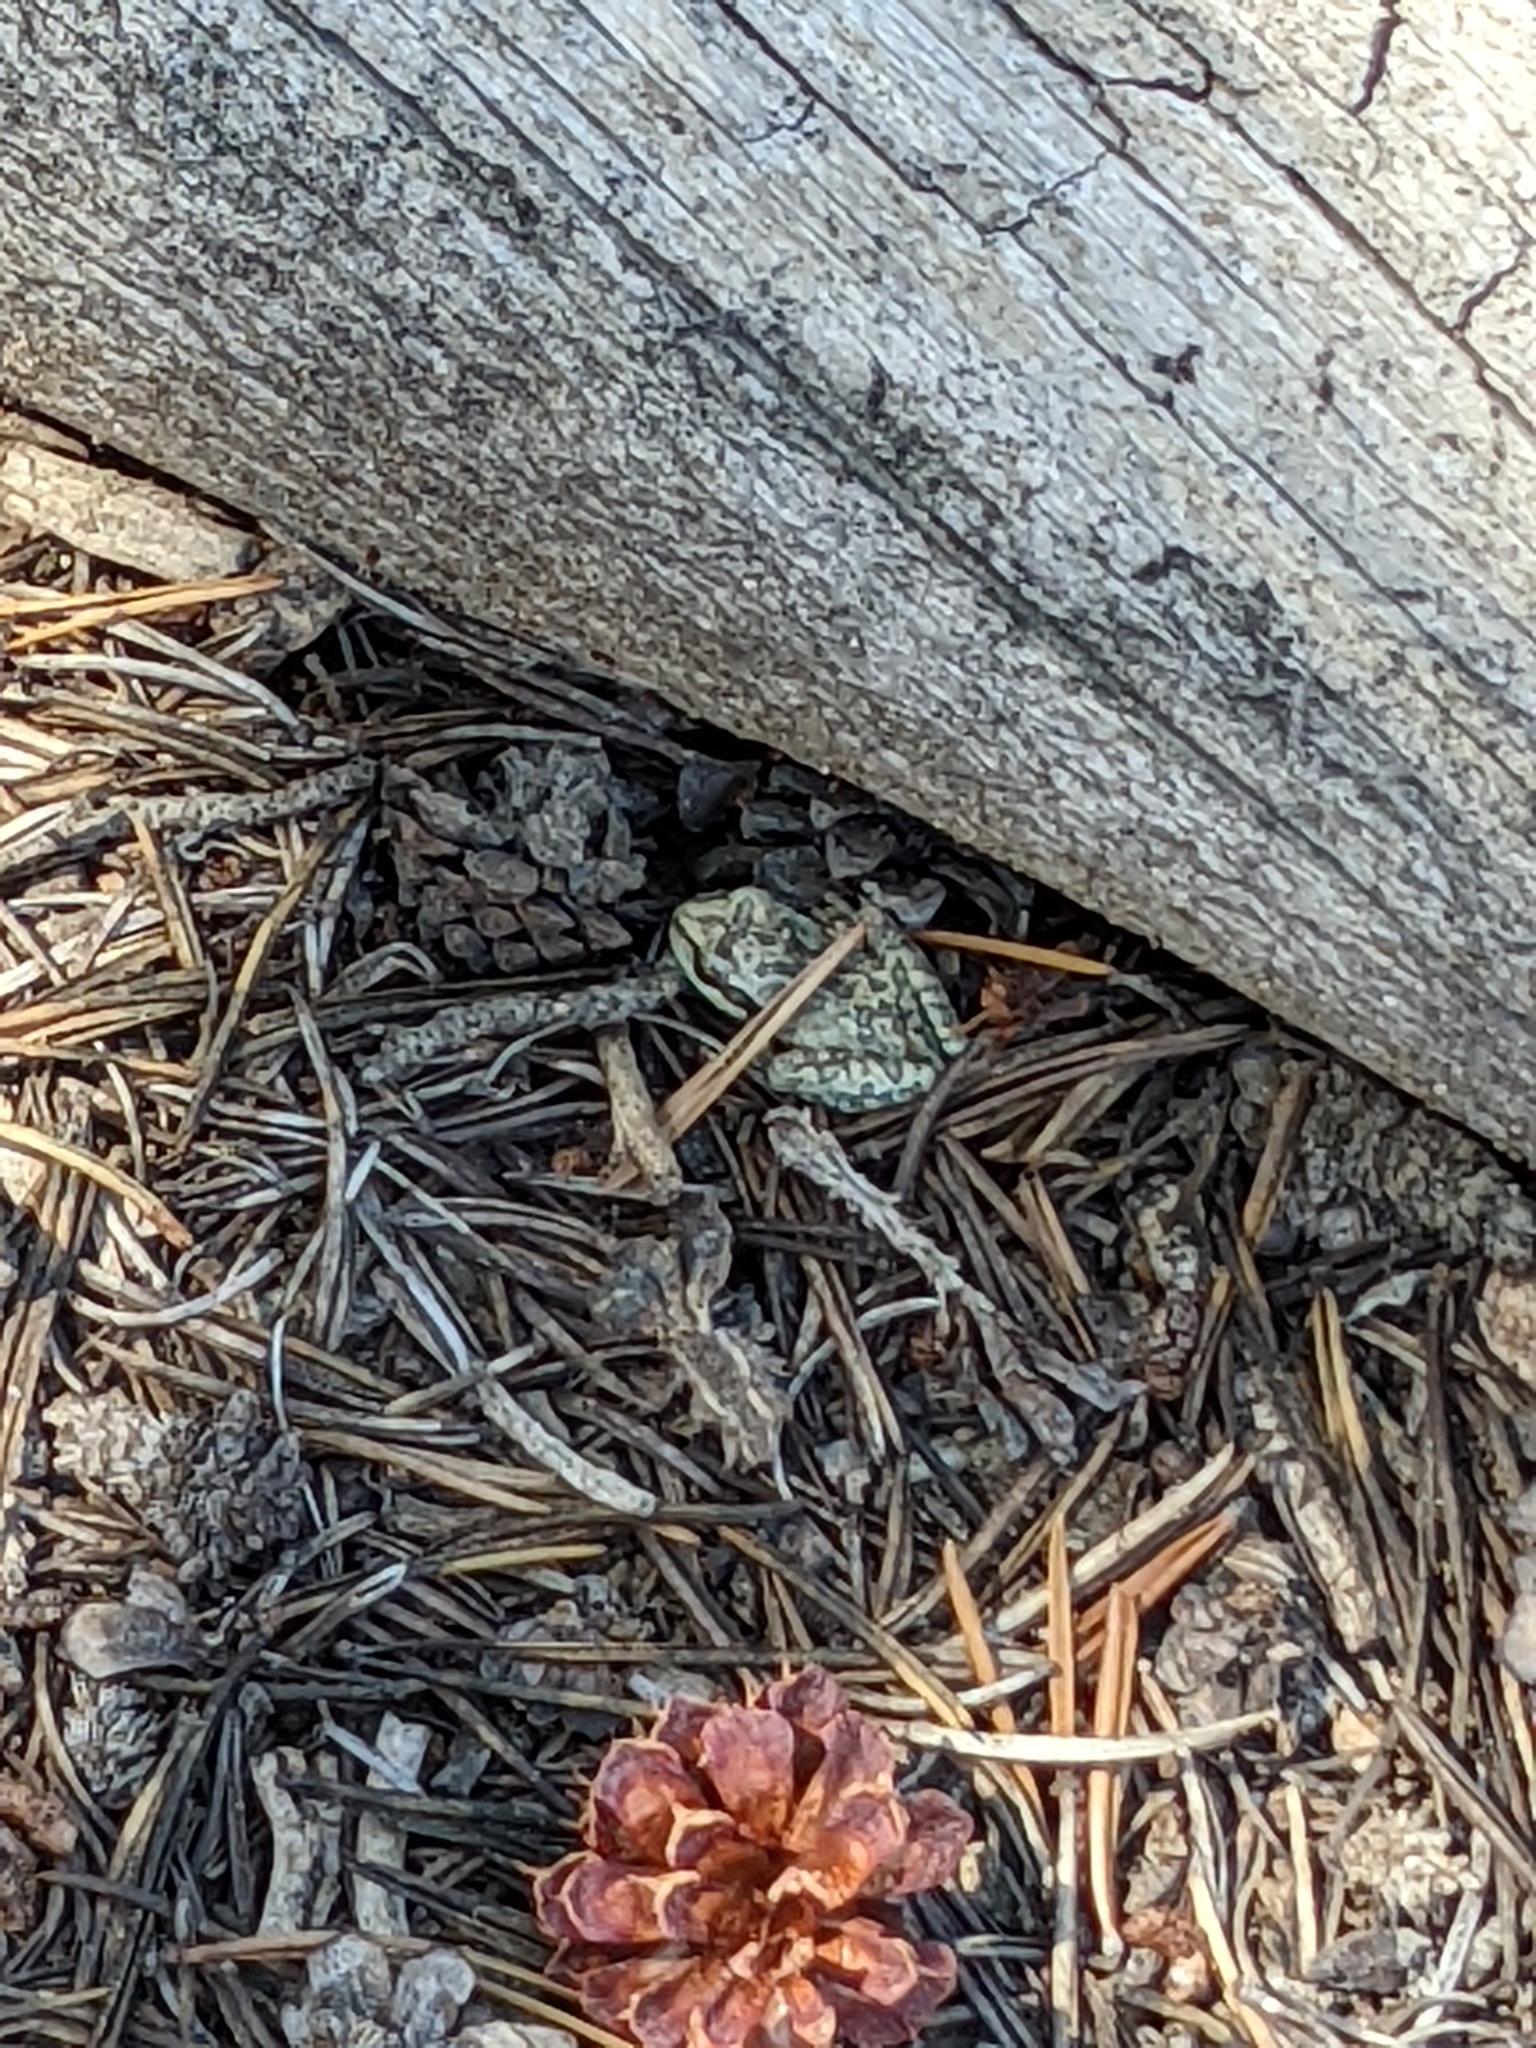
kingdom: Animalia
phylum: Chordata
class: Amphibia
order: Anura
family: Hylidae
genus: Pseudacris
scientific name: Pseudacris regilla
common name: Pacific chorus frog
